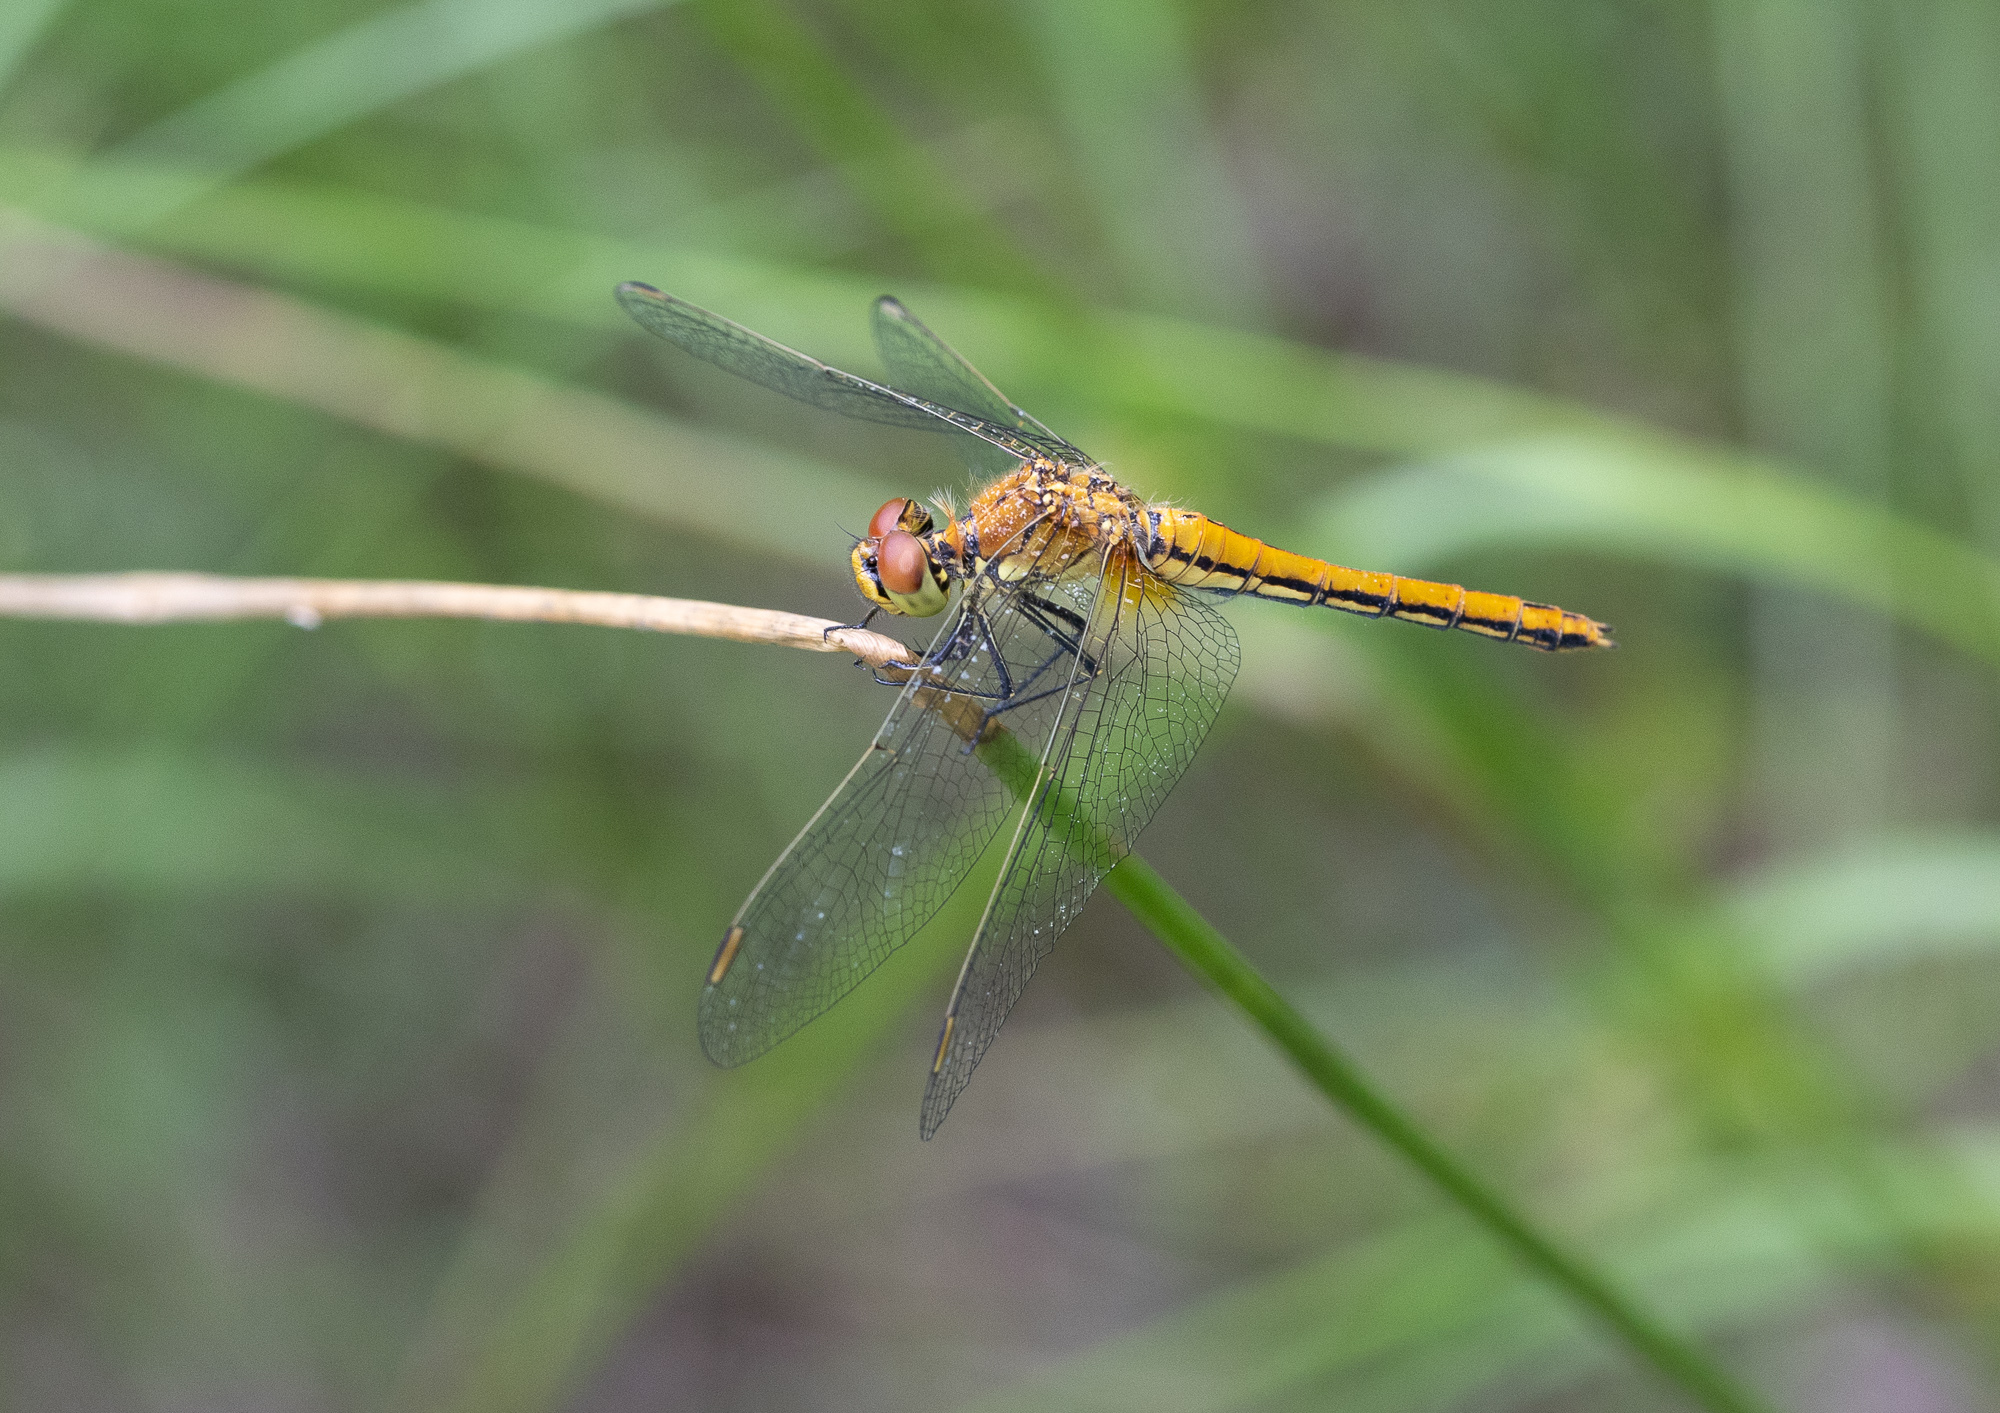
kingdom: Animalia
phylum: Arthropoda
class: Insecta
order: Odonata
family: Libellulidae
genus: Sympetrum
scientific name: Sympetrum flaveolum
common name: Yellow-winged darter
